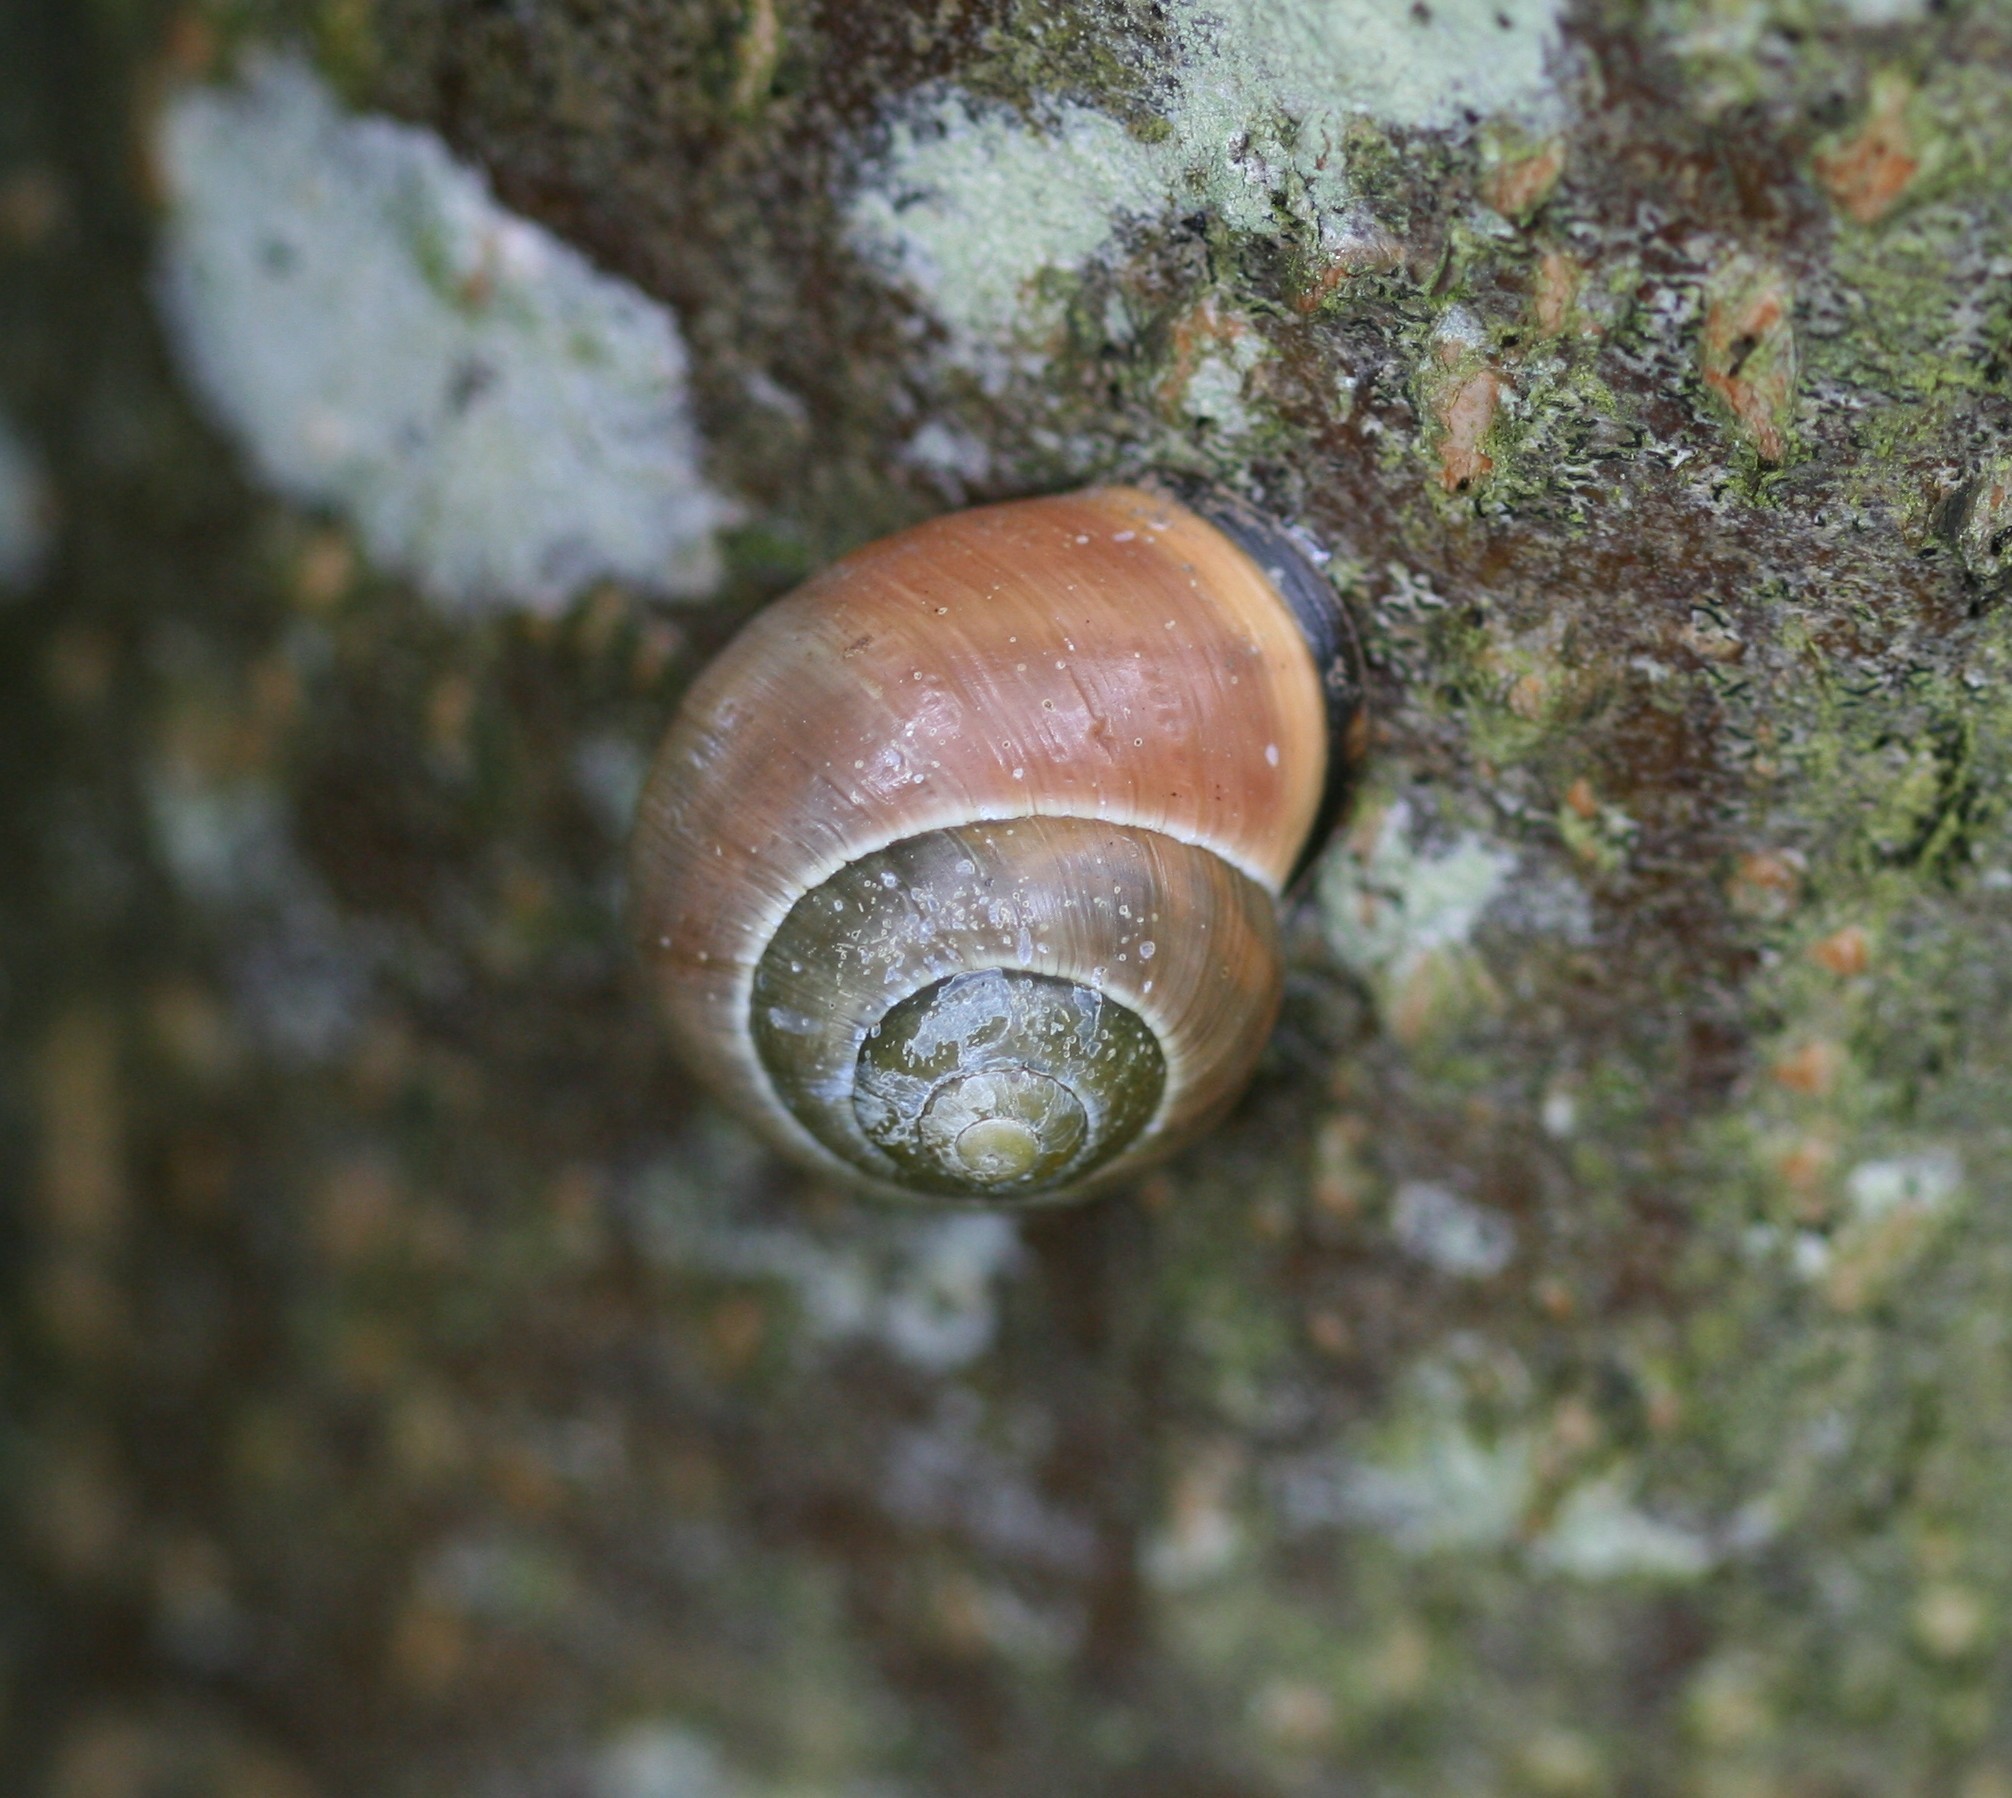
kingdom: Animalia
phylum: Mollusca
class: Gastropoda
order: Stylommatophora
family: Helicidae
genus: Cepaea
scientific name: Cepaea nemoralis
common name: Grovesnail
